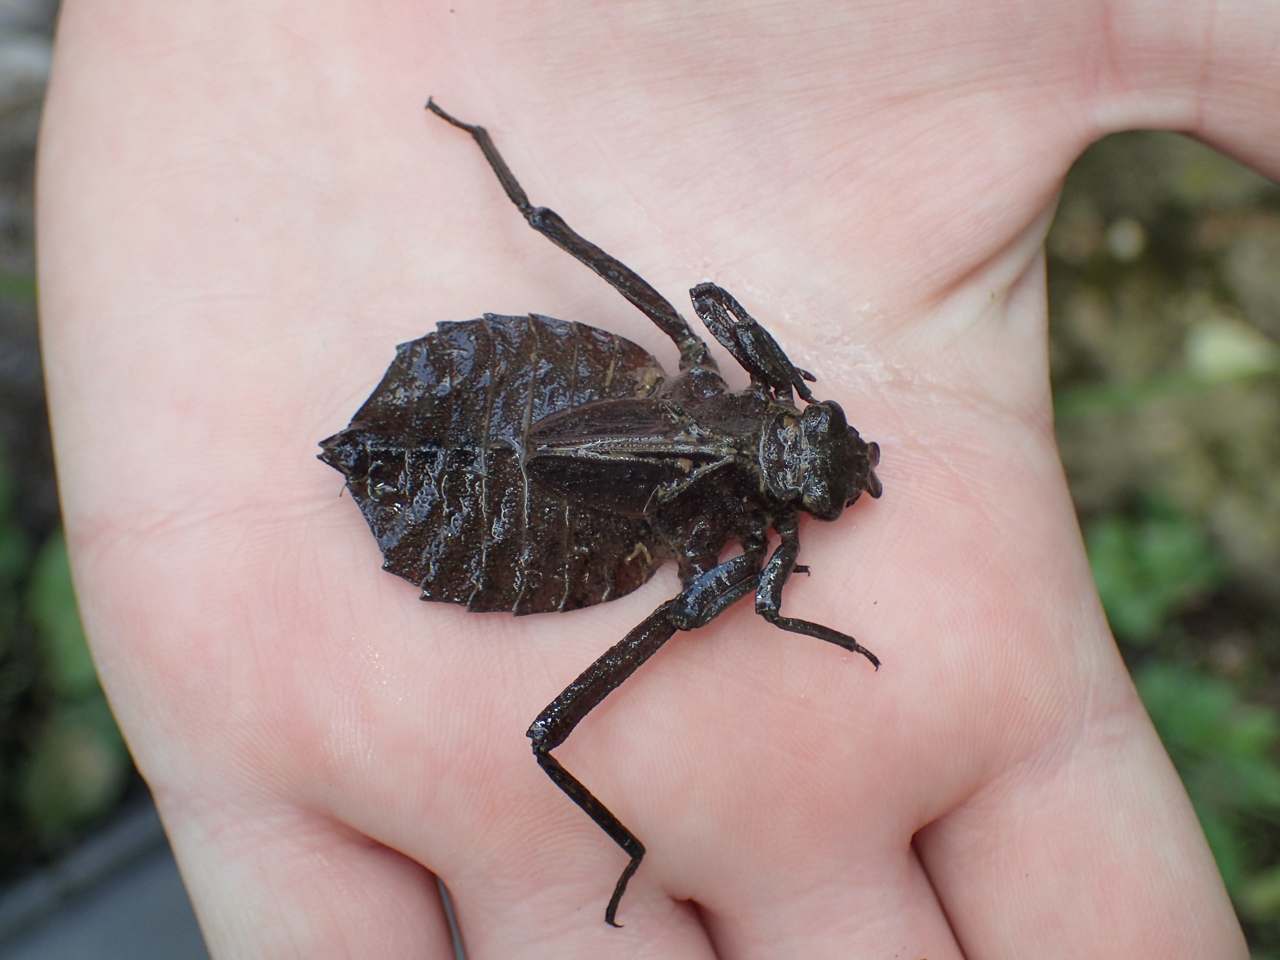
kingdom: Animalia
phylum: Arthropoda
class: Insecta
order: Odonata
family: Gomphidae
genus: Hagenius
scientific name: Hagenius brevistylus
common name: Dragonhunter
